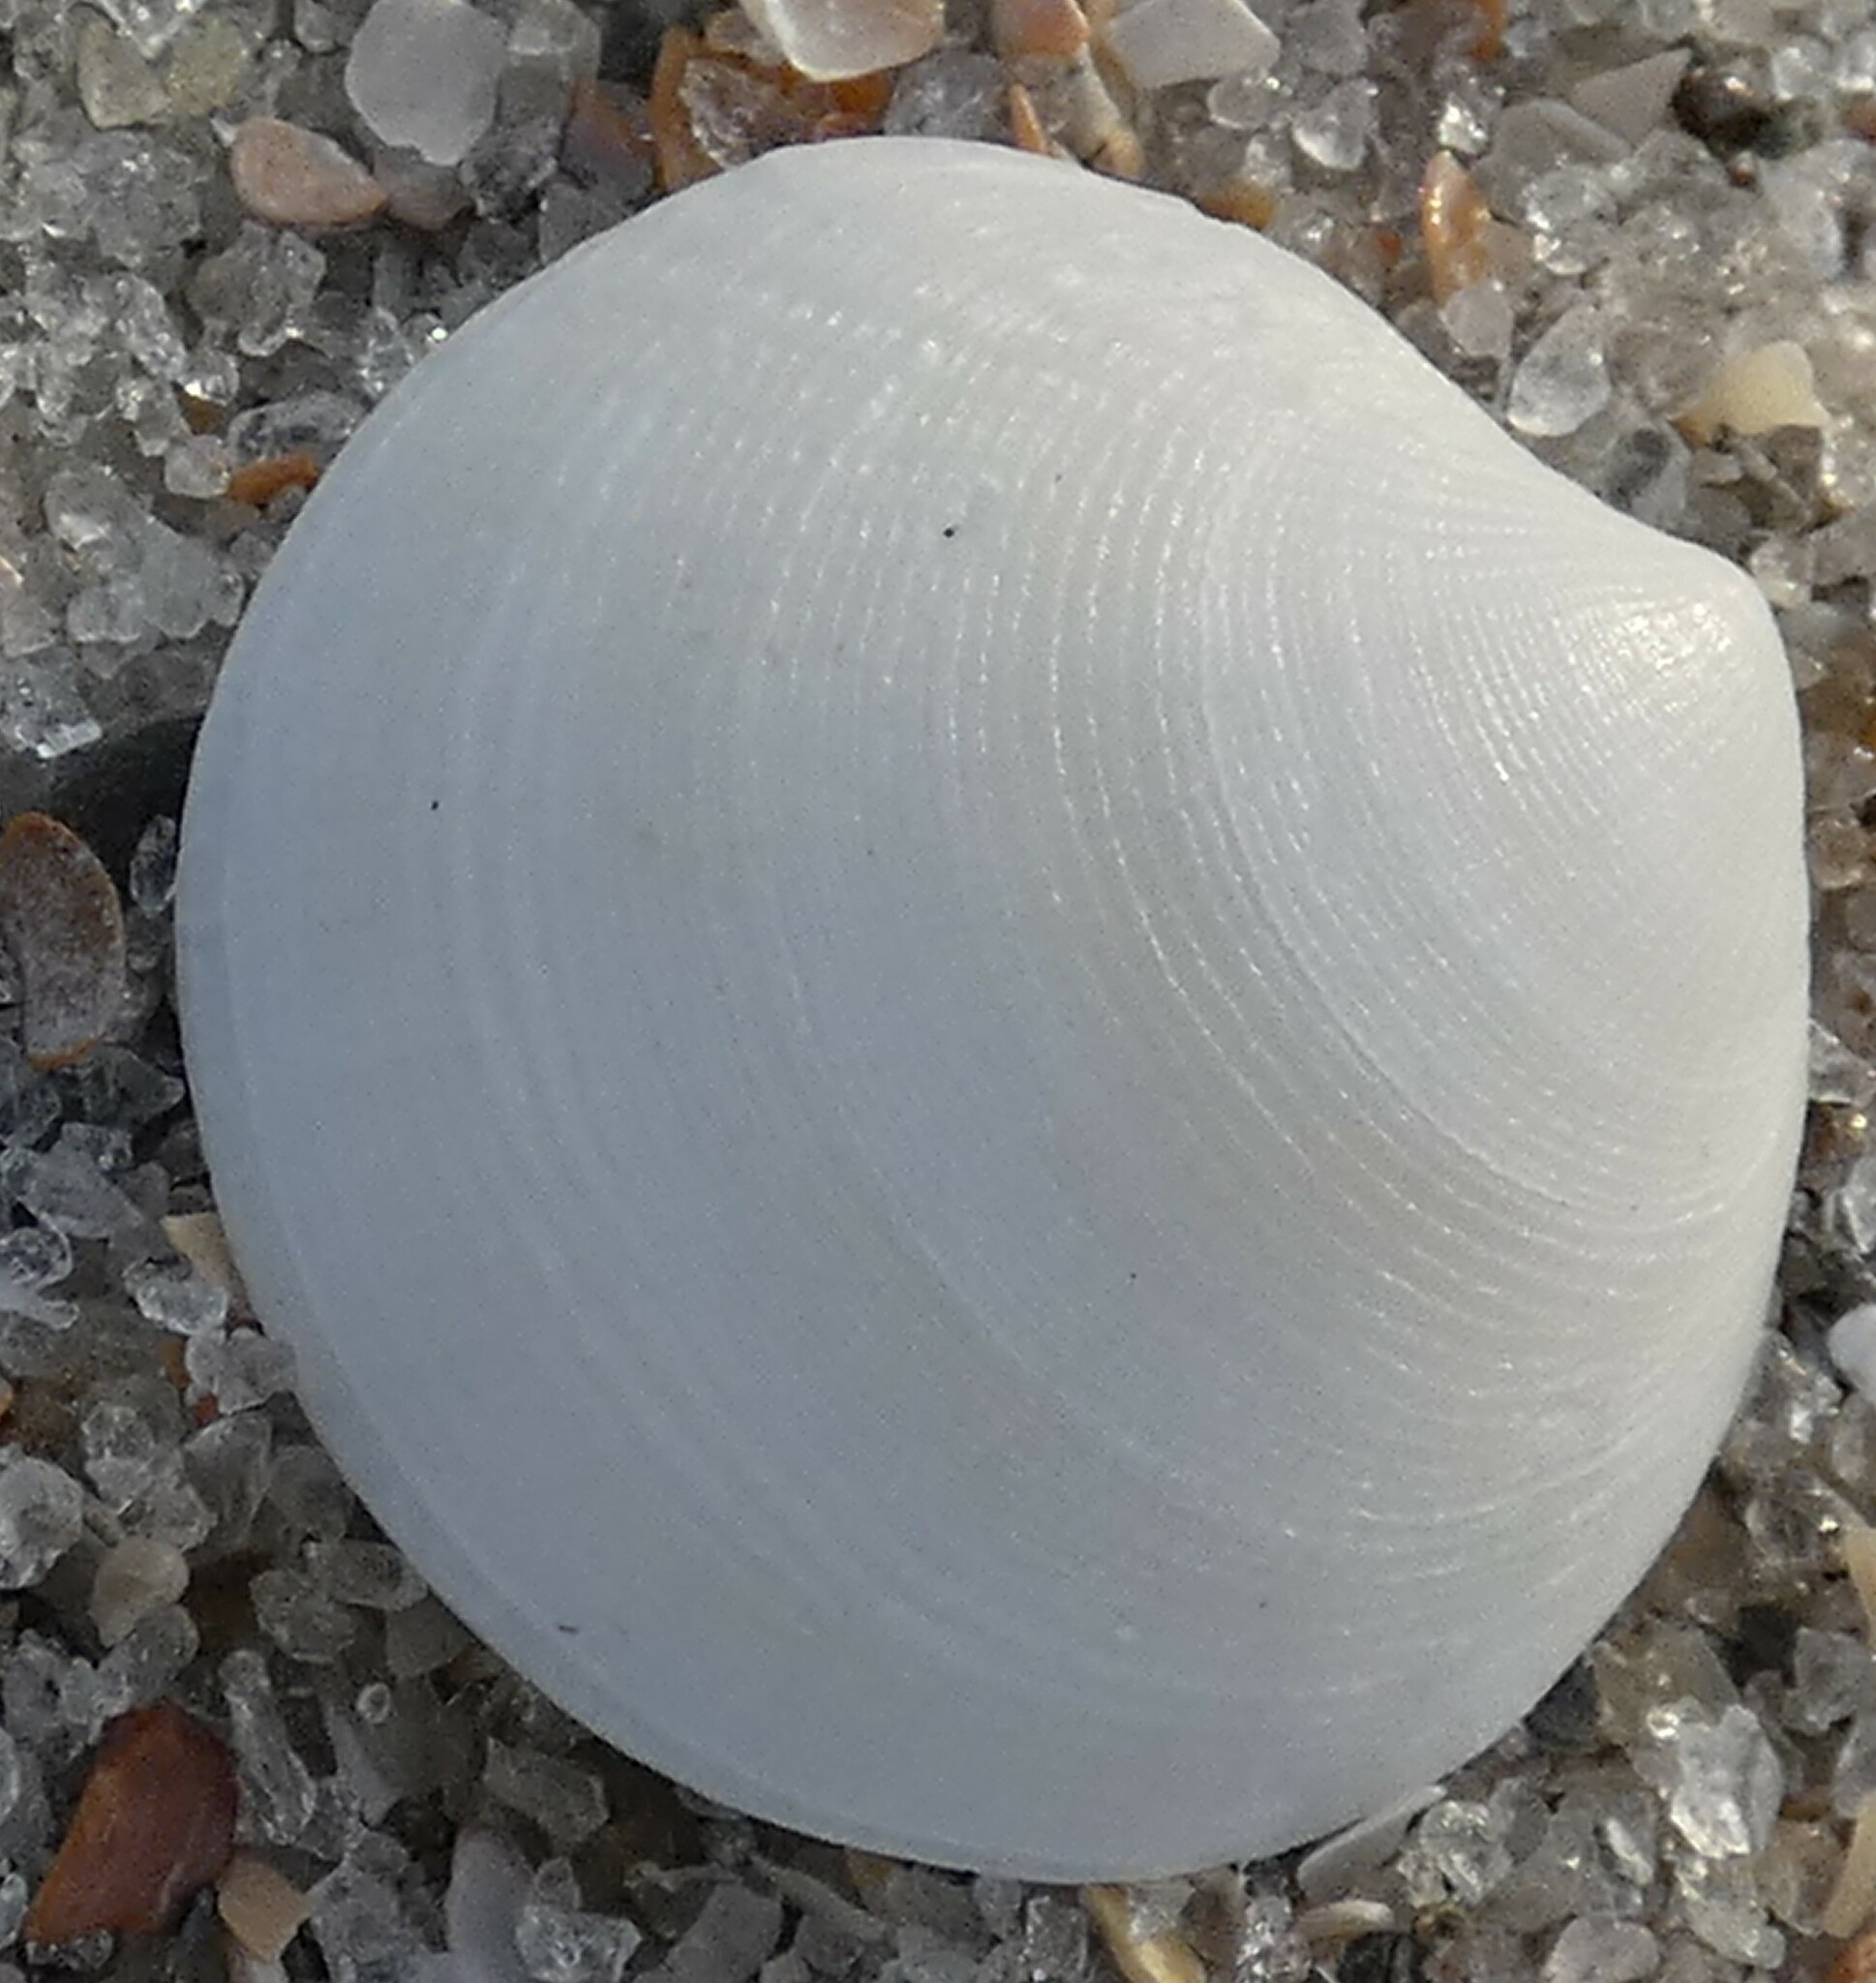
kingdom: Animalia
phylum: Mollusca
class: Bivalvia
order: Lucinida
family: Lucinidae
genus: Callucina
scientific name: Callucina keenae
